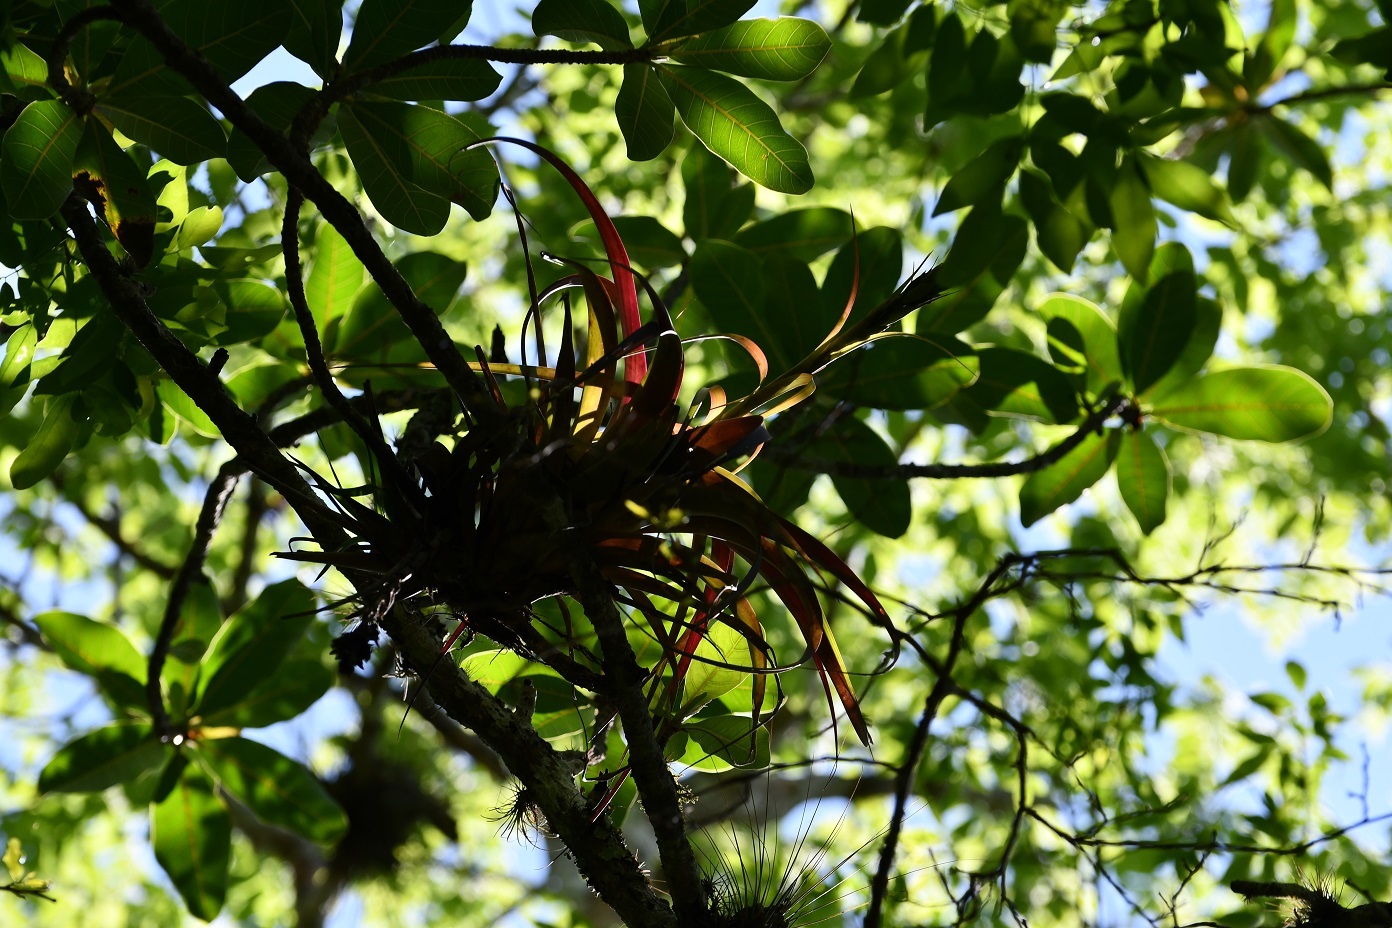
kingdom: Plantae
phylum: Tracheophyta
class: Liliopsida
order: Poales
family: Bromeliaceae
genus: Tillandsia
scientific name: Tillandsia belloensis
